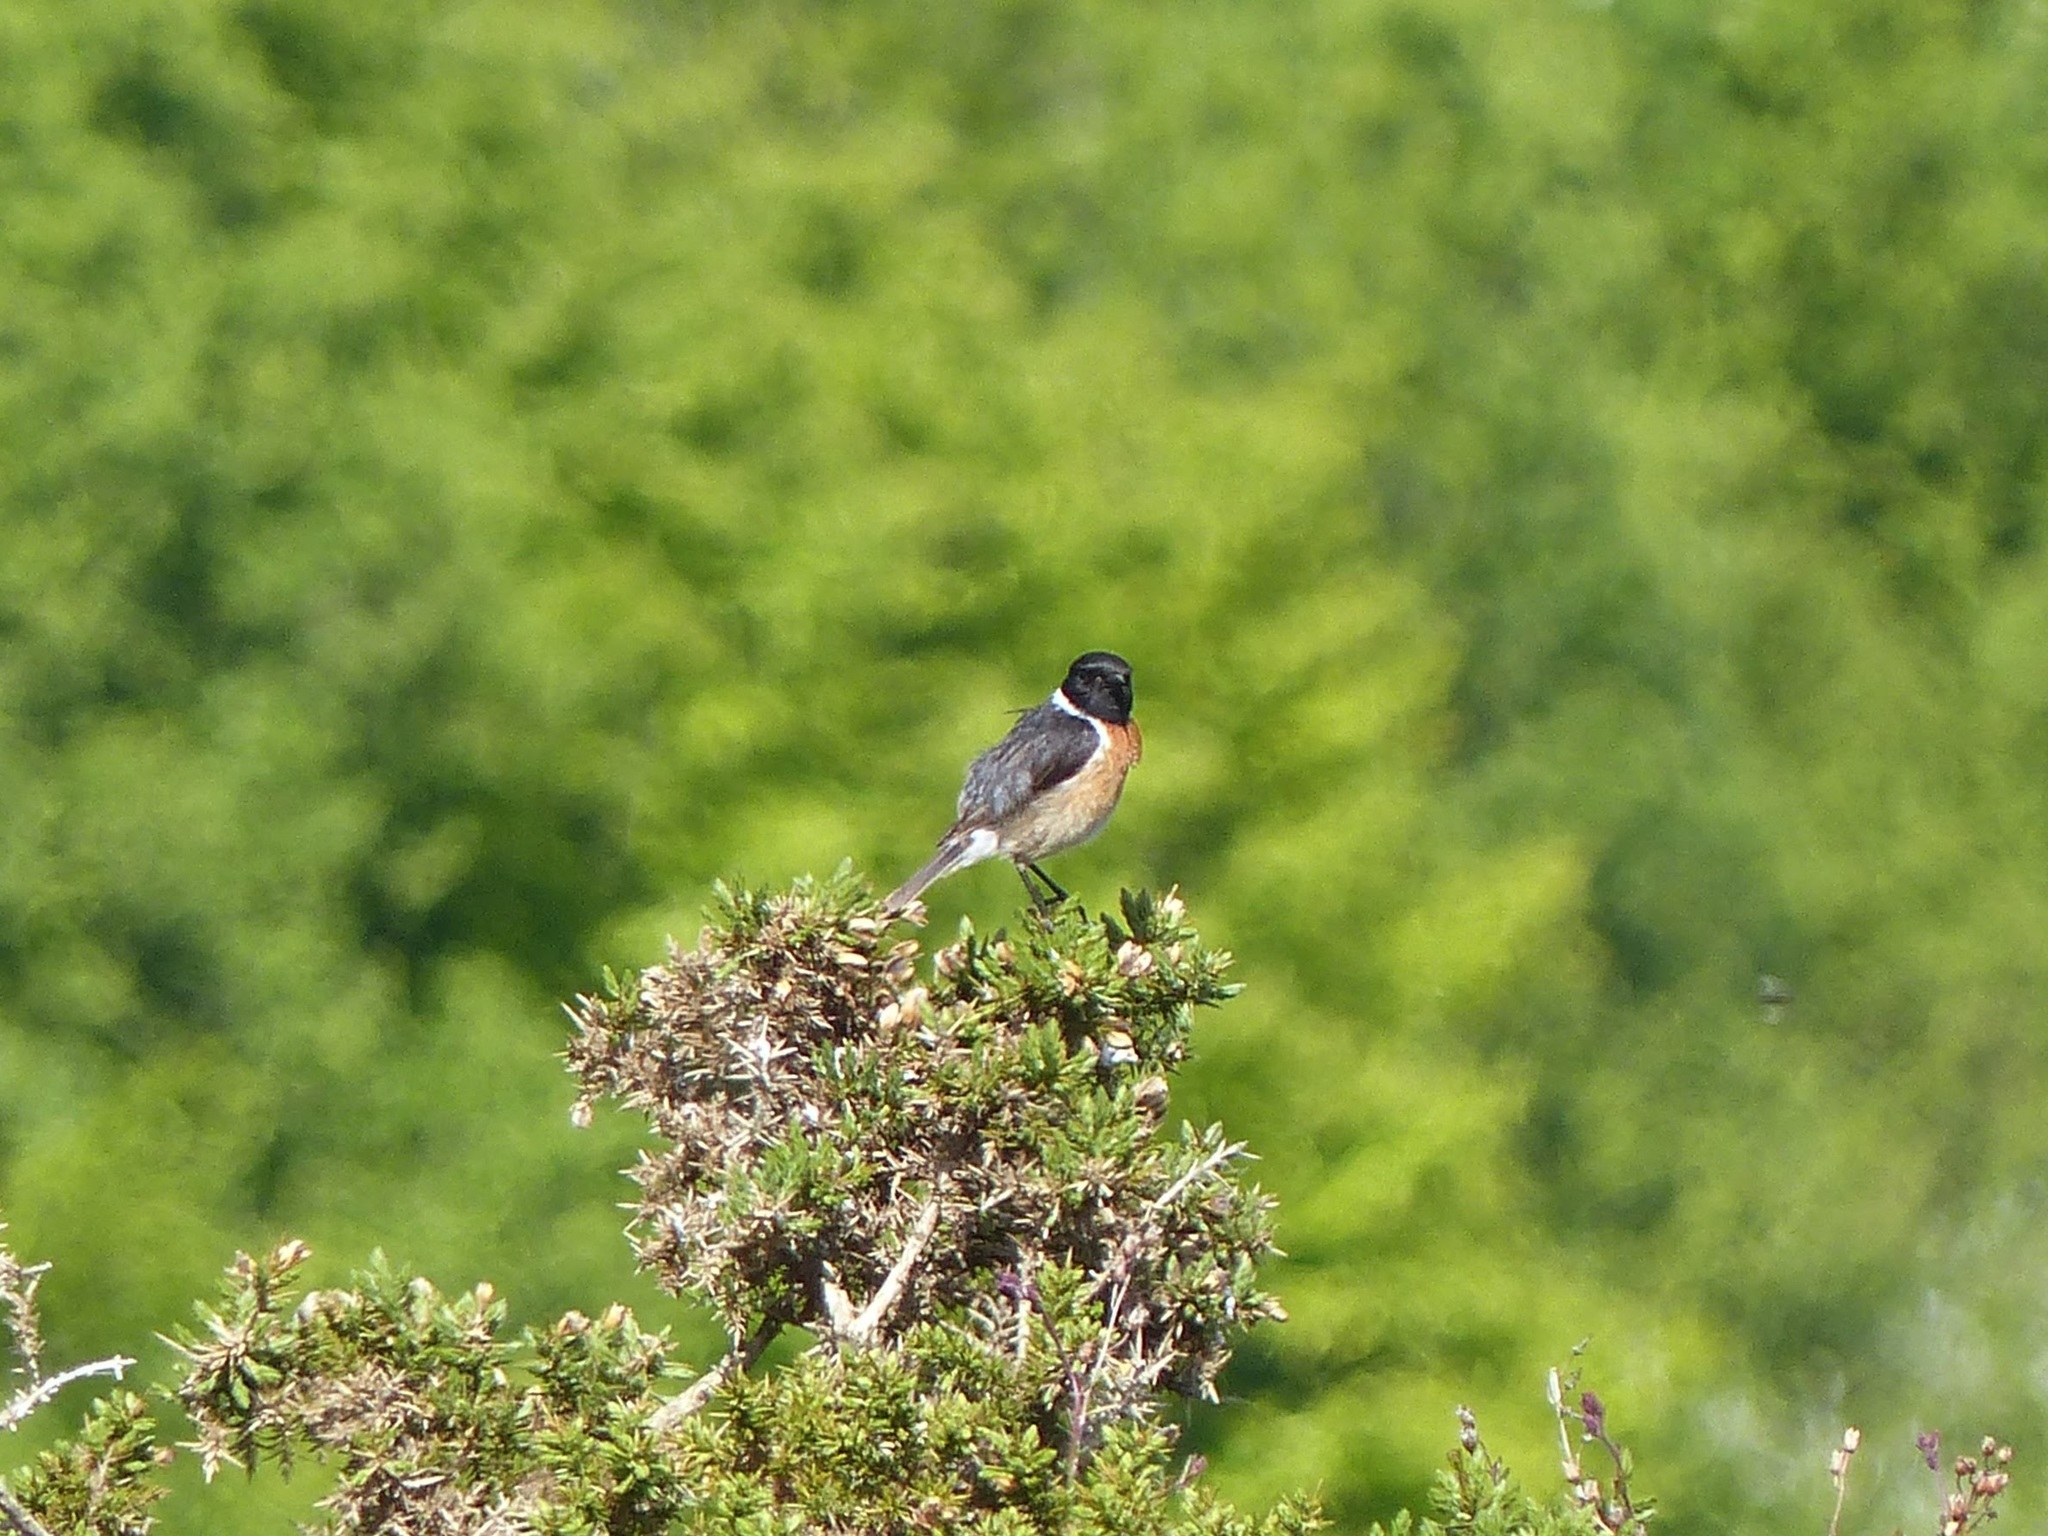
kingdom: Animalia
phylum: Chordata
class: Aves
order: Passeriformes
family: Muscicapidae
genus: Saxicola
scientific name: Saxicola rubicola
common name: European stonechat
